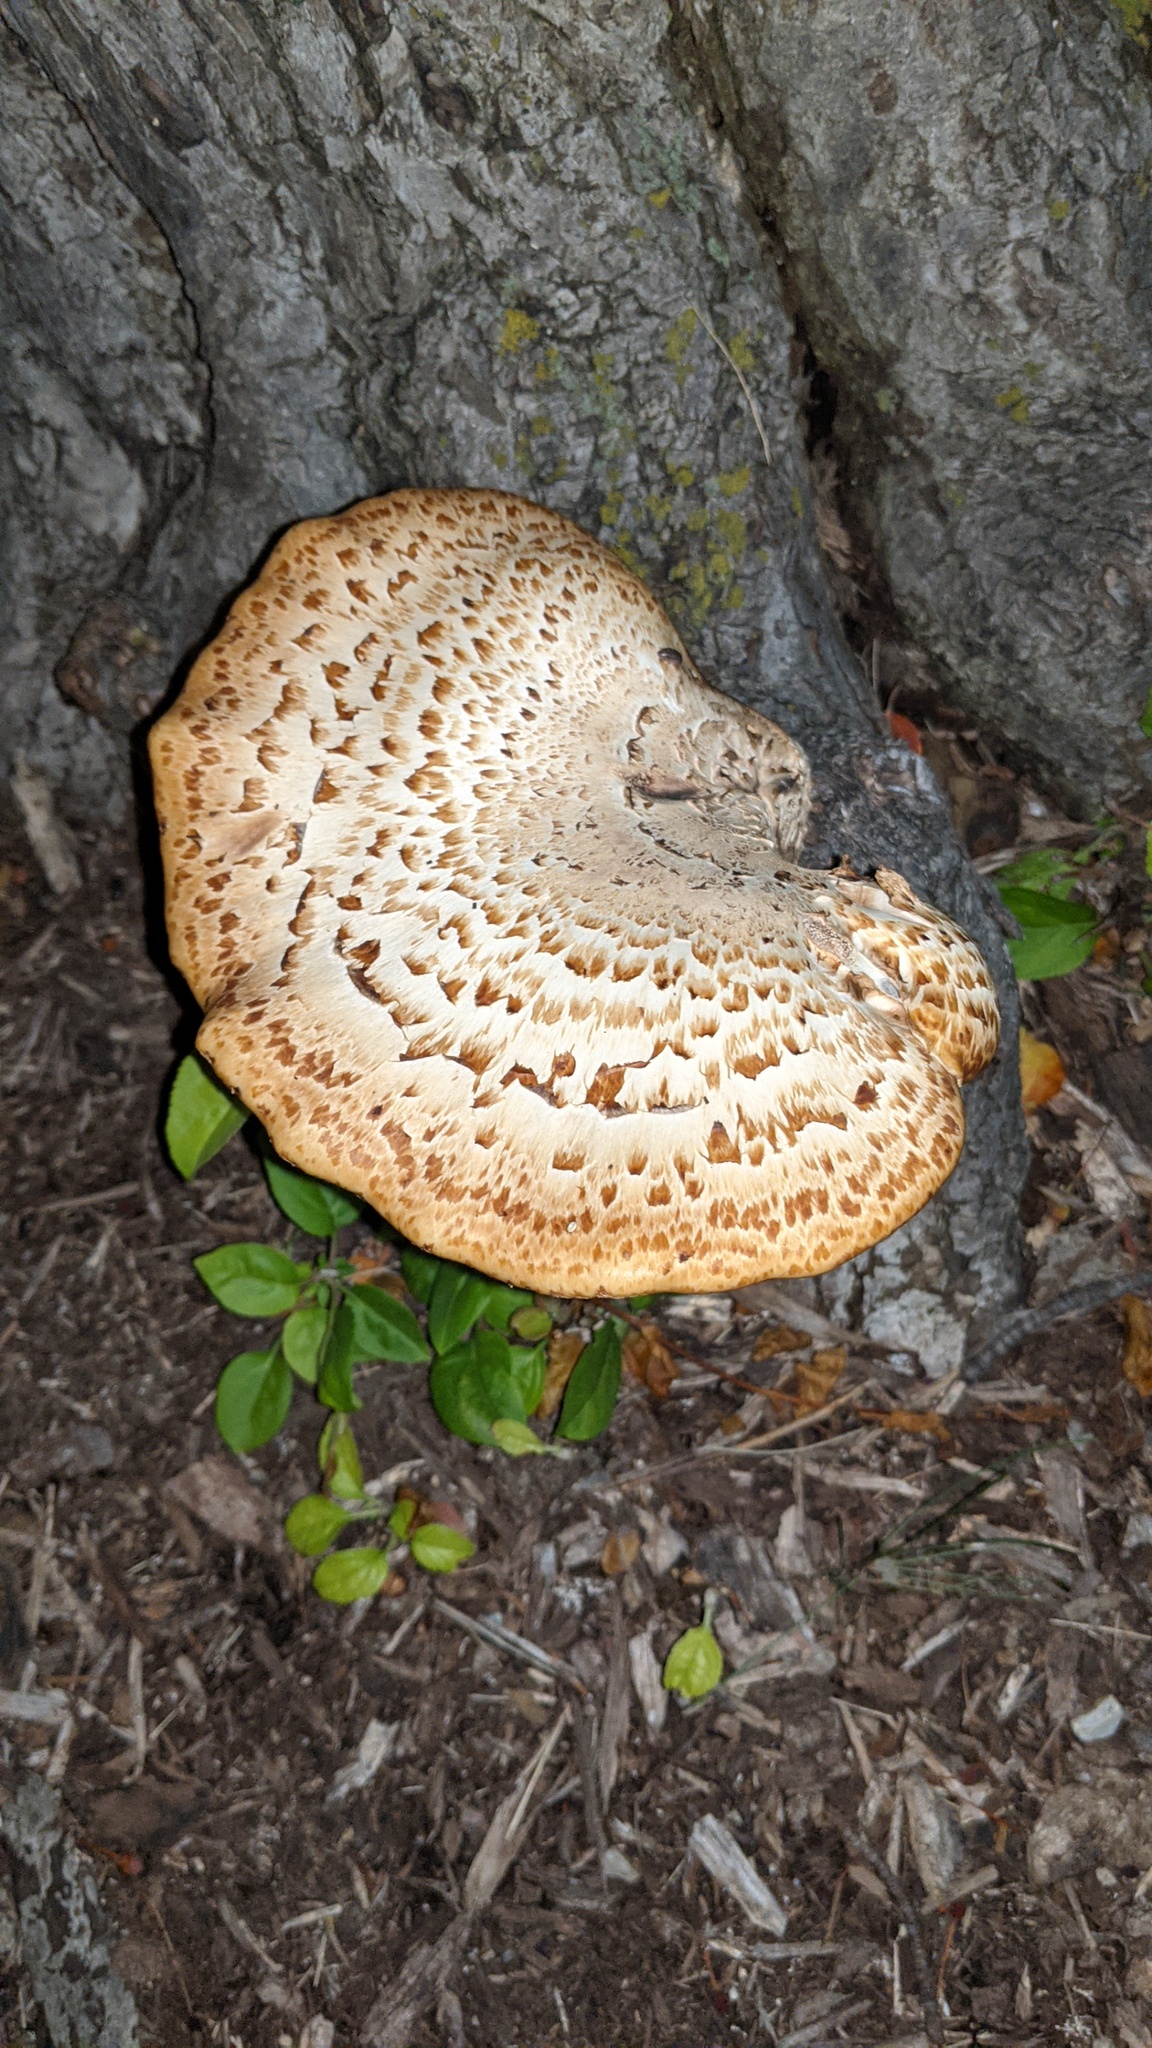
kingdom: Fungi
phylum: Basidiomycota
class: Agaricomycetes
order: Polyporales
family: Polyporaceae
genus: Cerioporus
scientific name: Cerioporus squamosus
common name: Dryad's saddle
